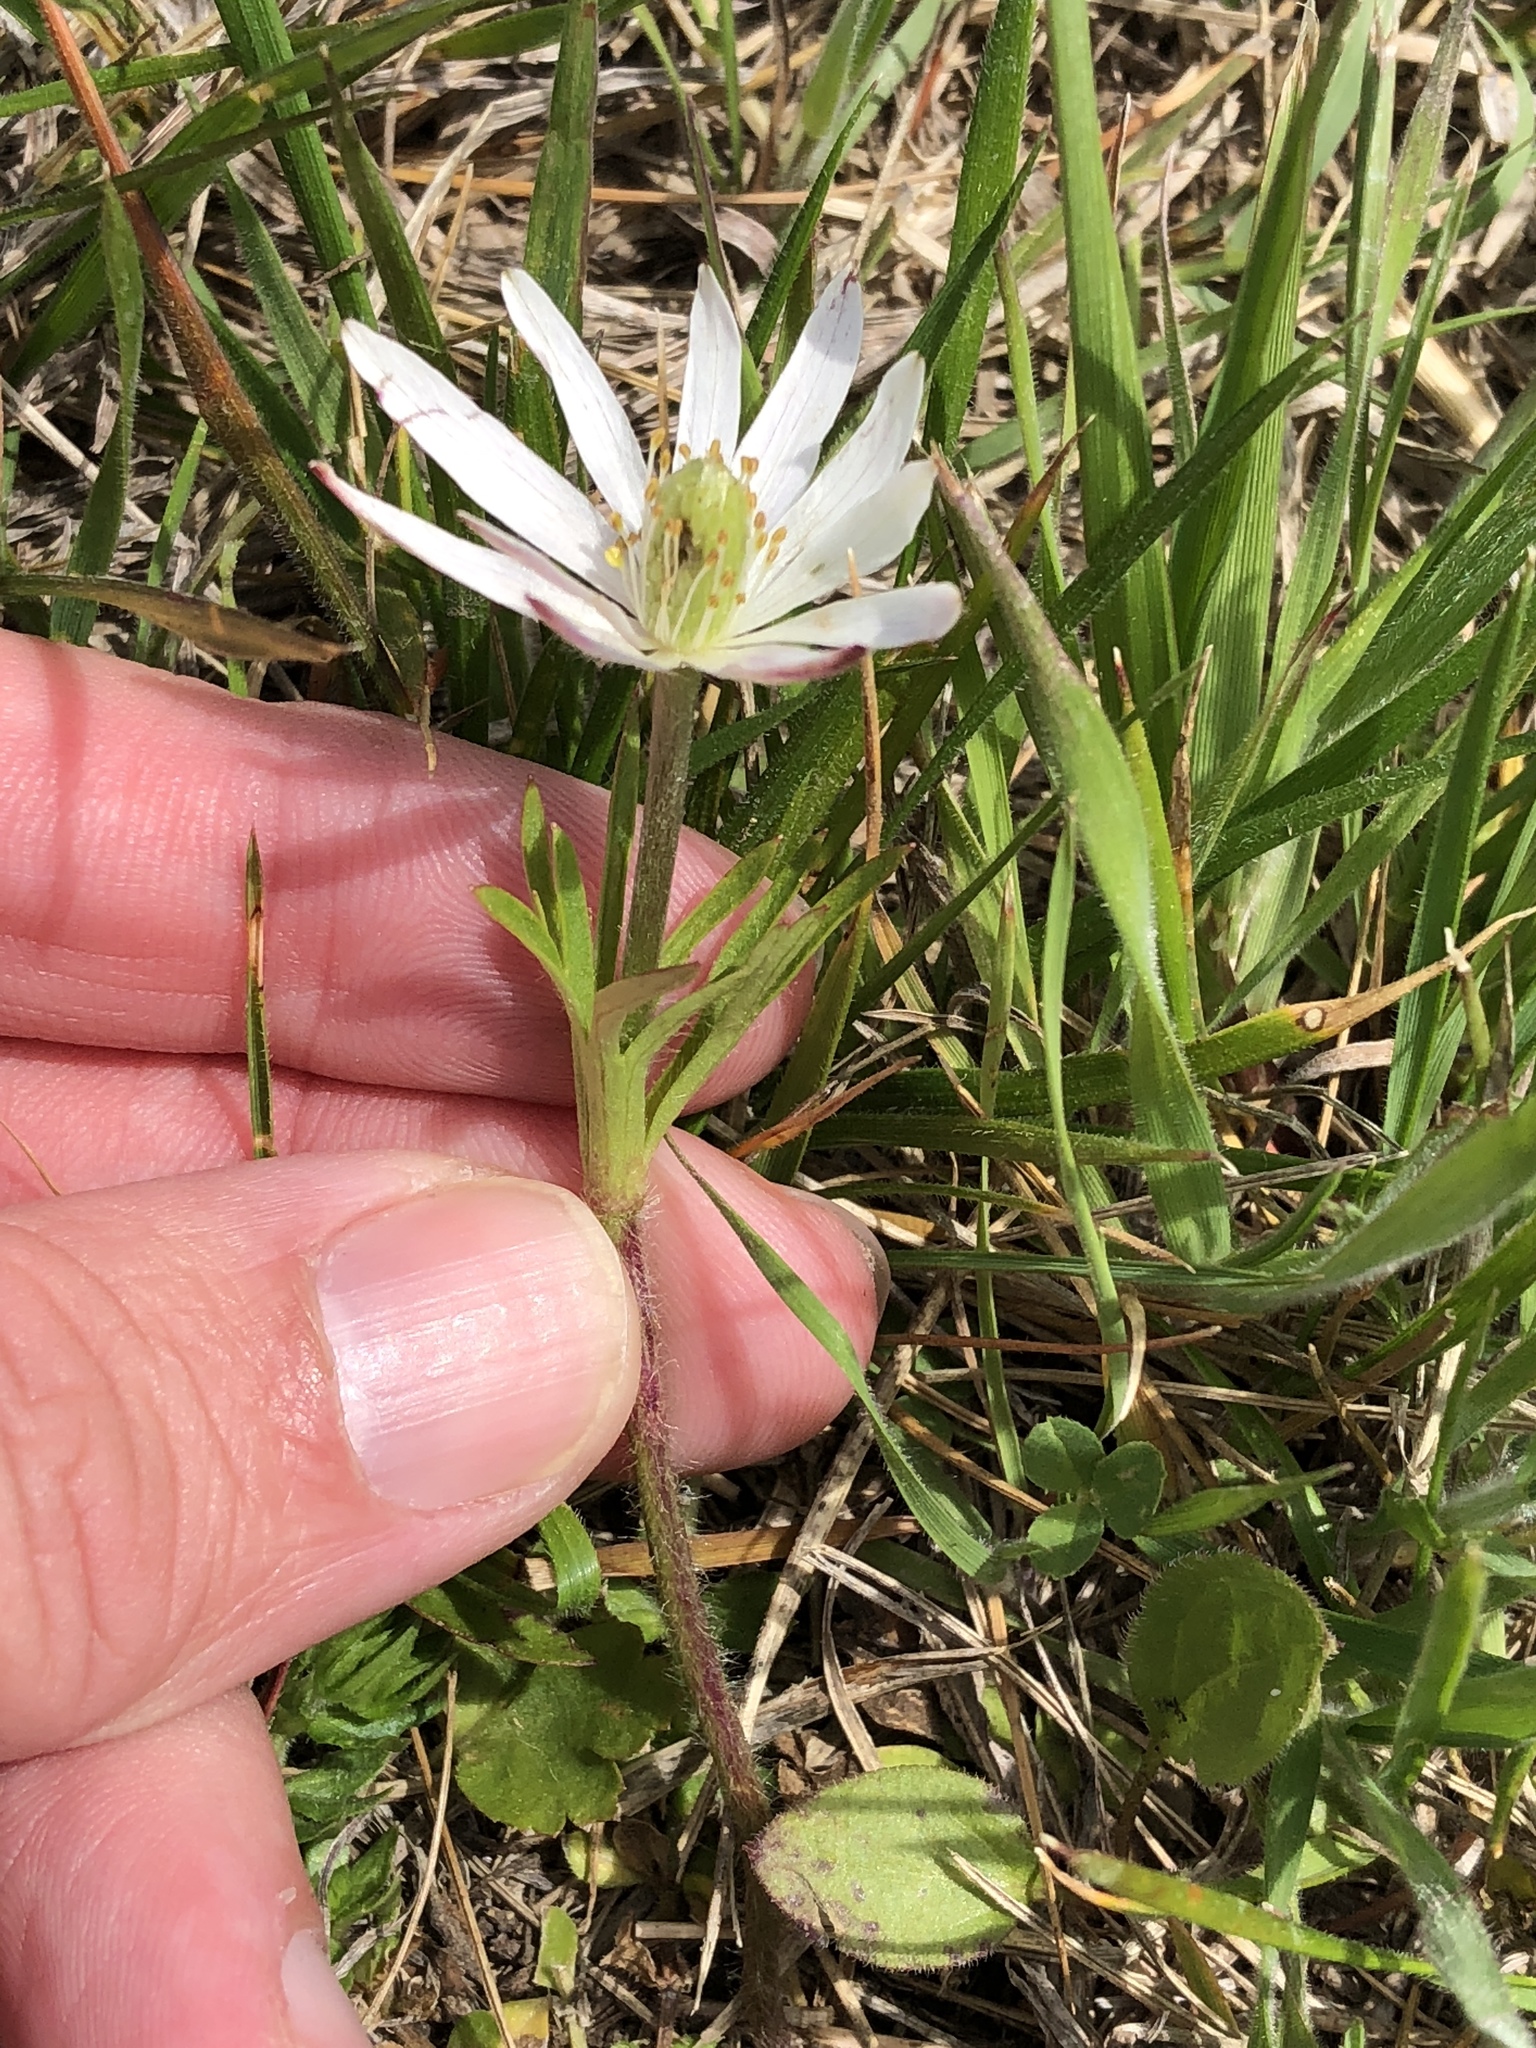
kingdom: Plantae
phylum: Tracheophyta
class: Magnoliopsida
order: Ranunculales
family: Ranunculaceae
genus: Anemone
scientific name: Anemone berlandieri
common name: Ten-petal anemone
